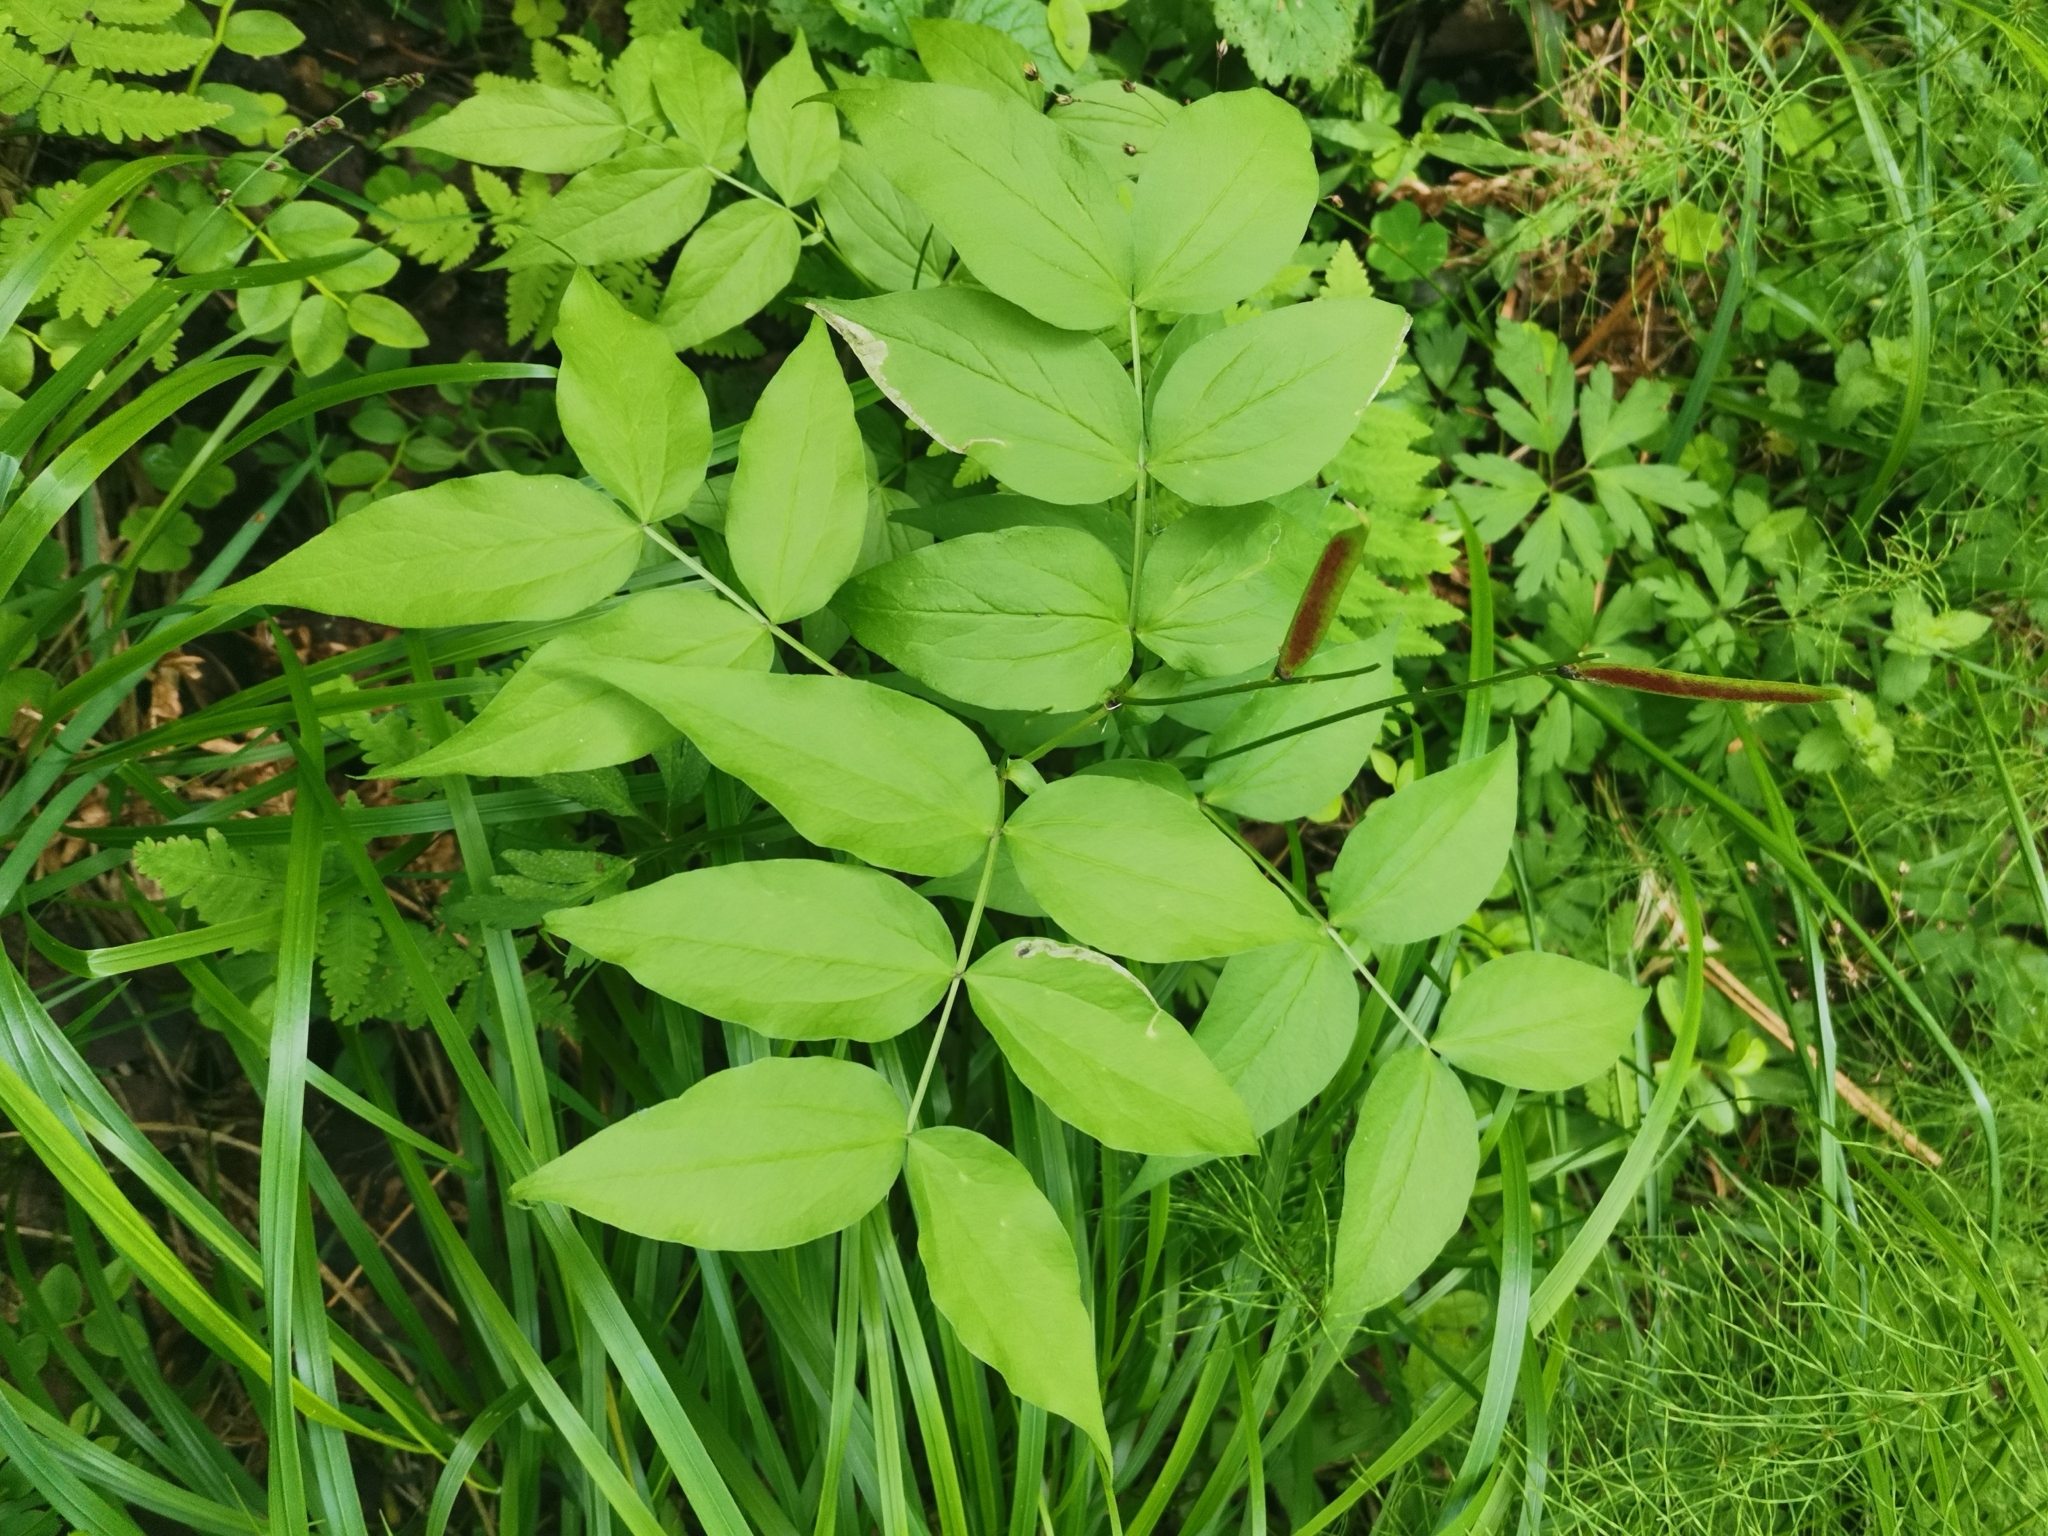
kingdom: Plantae
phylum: Tracheophyta
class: Magnoliopsida
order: Fabales
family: Fabaceae
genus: Lathyrus
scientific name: Lathyrus vernus
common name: Spring pea
